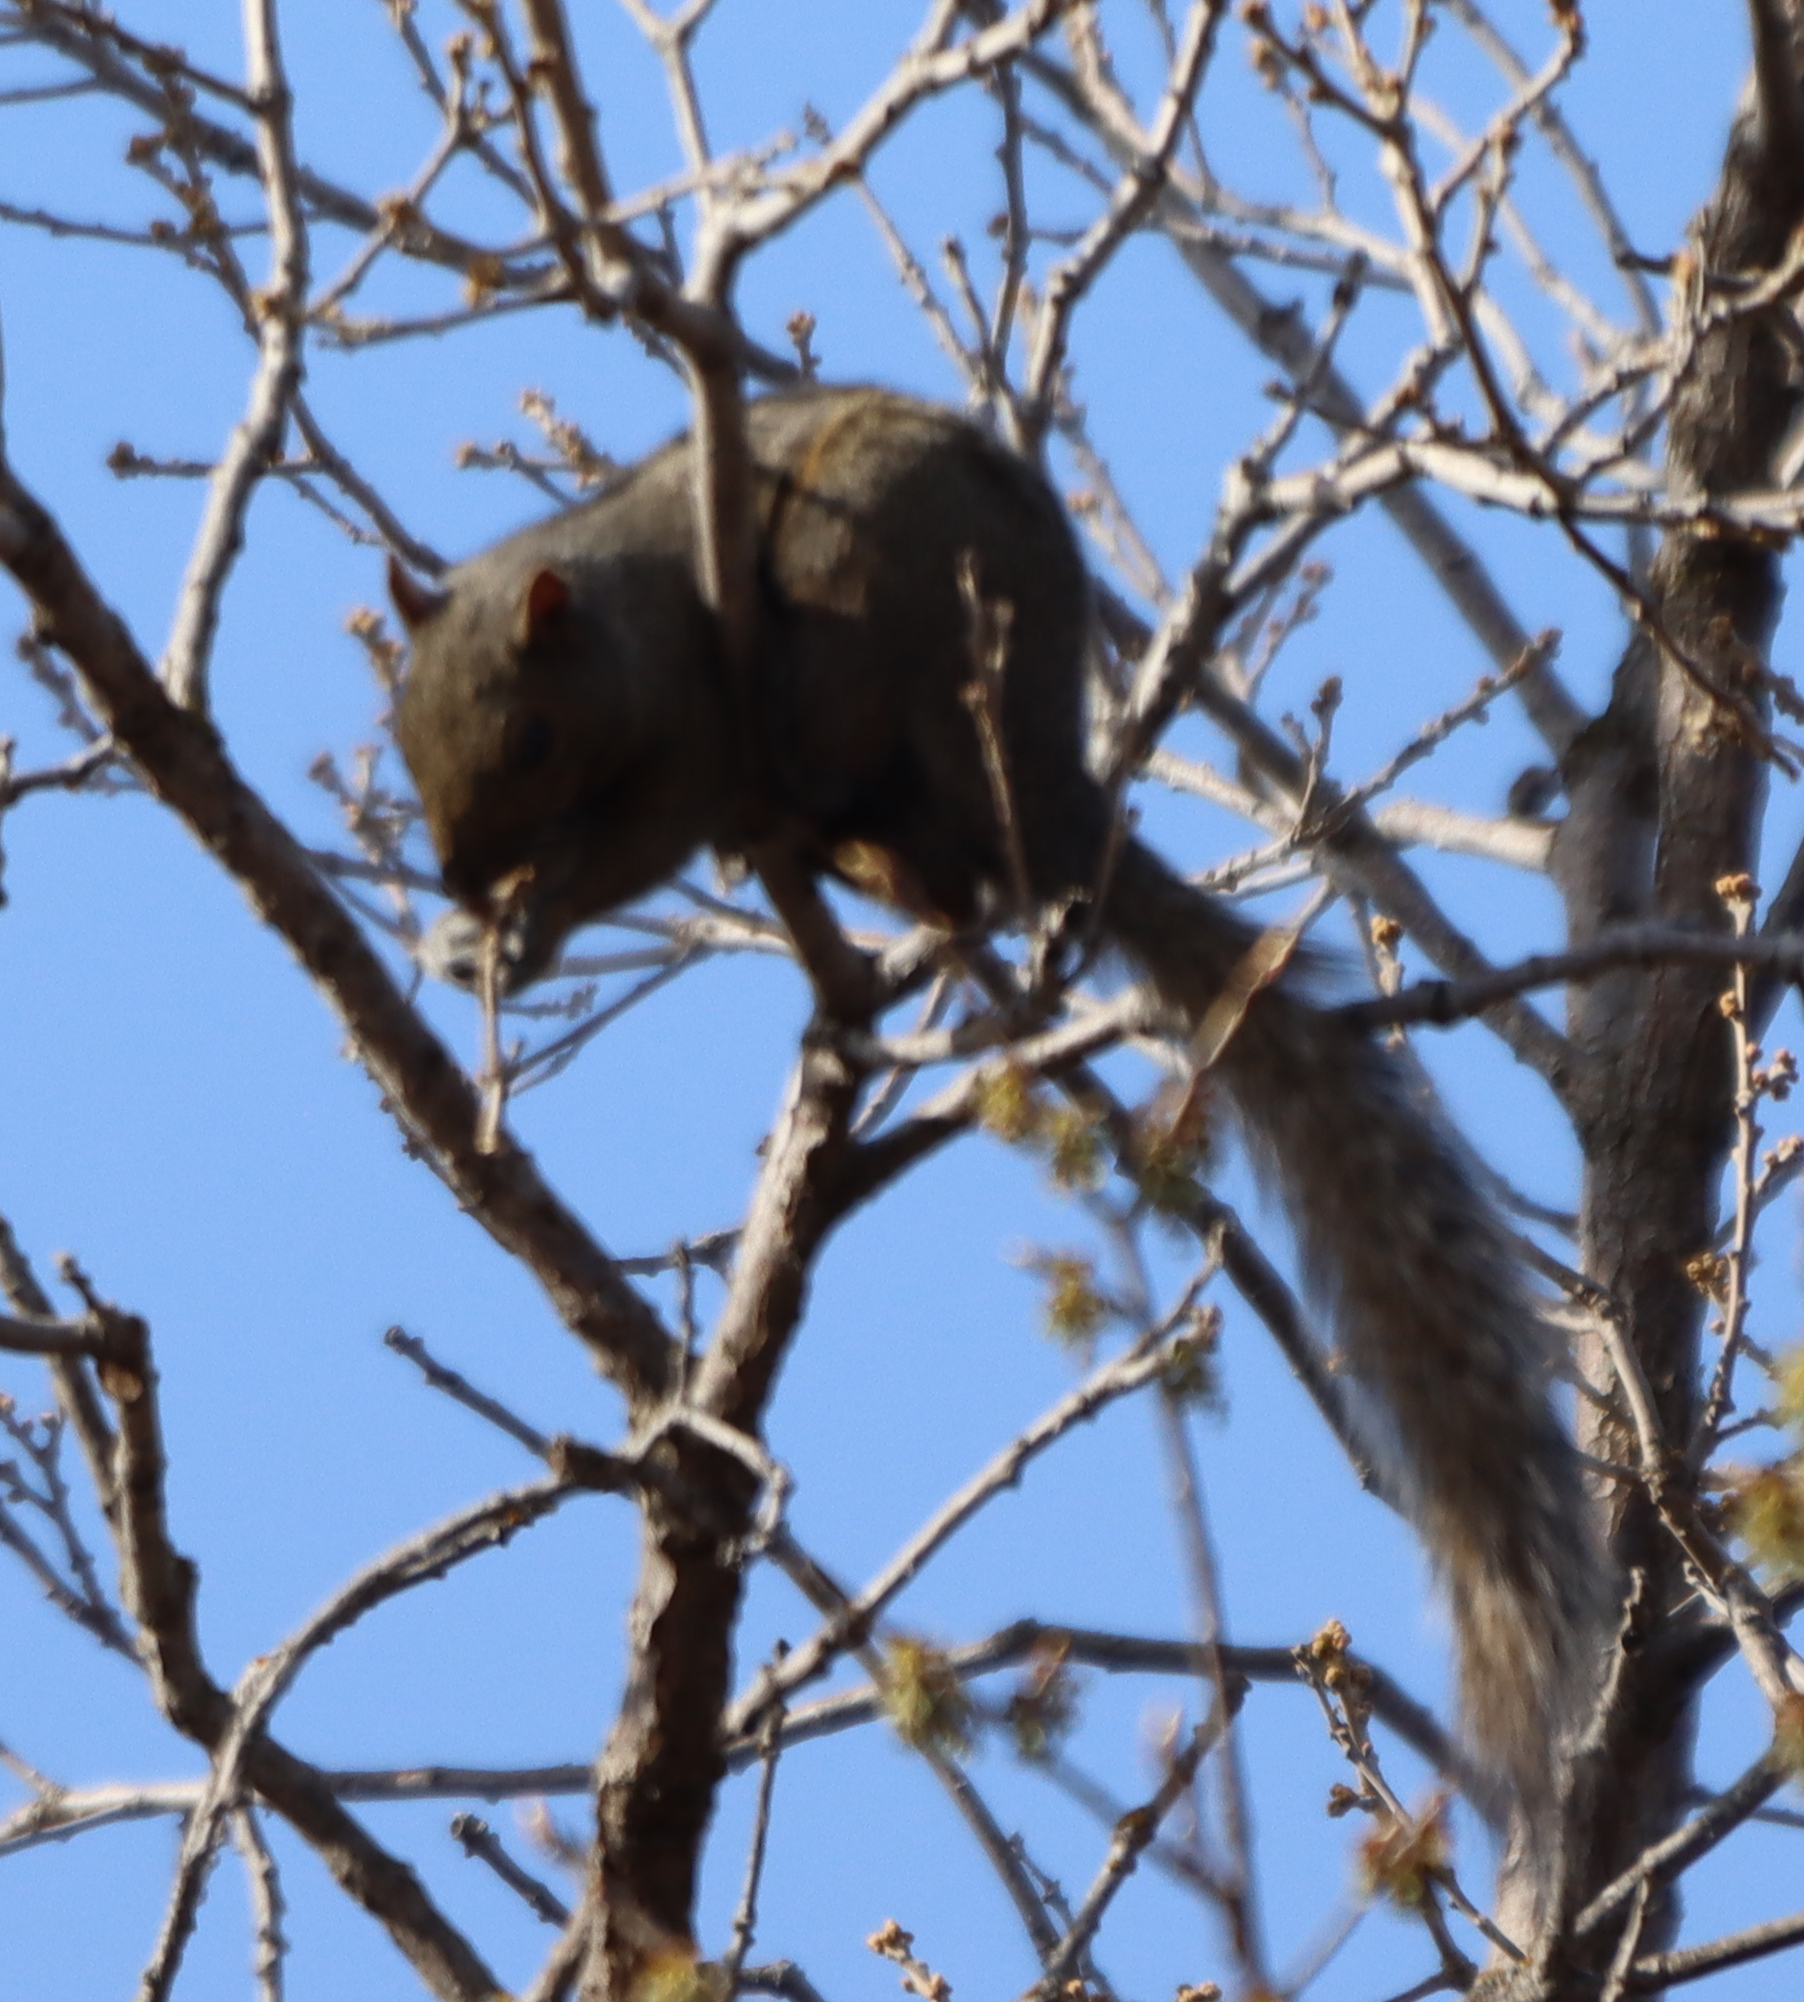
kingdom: Animalia
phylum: Chordata
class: Mammalia
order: Rodentia
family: Sciuridae
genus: Sciurus
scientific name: Sciurus carolinensis
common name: Eastern gray squirrel
